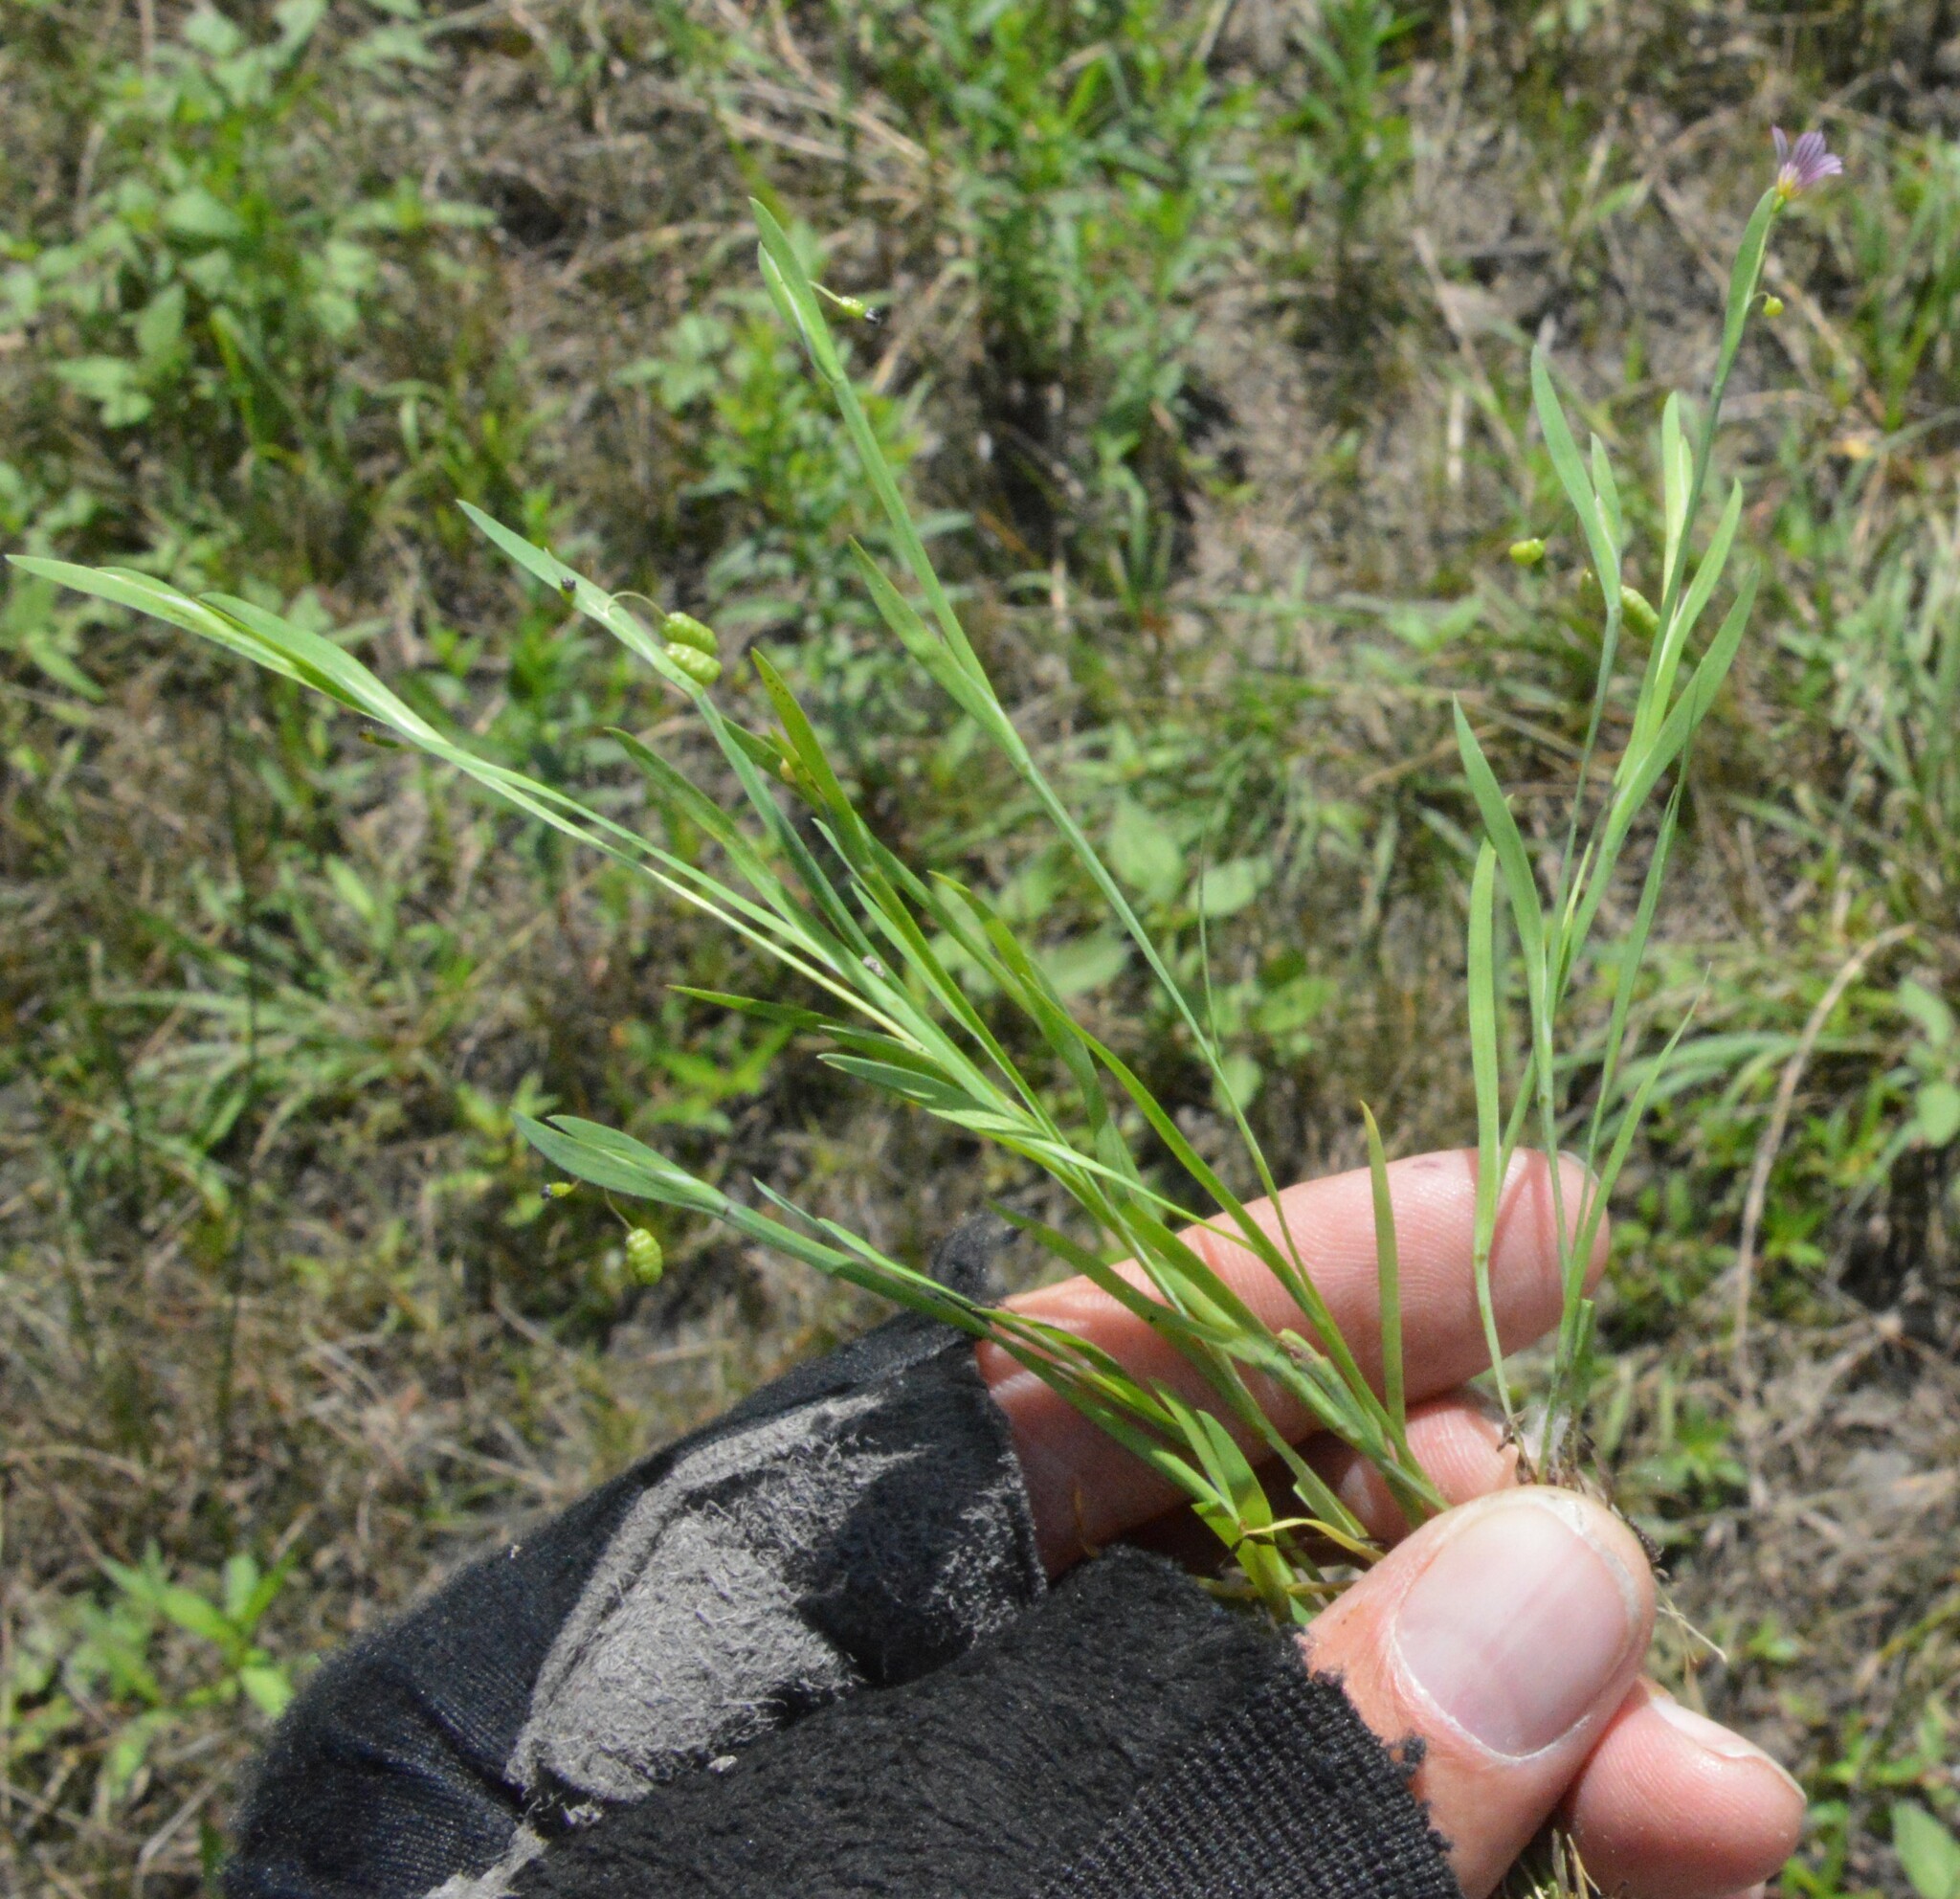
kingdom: Plantae
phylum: Tracheophyta
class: Liliopsida
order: Asparagales
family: Iridaceae
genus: Sisyrinchium
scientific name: Sisyrinchium minus
